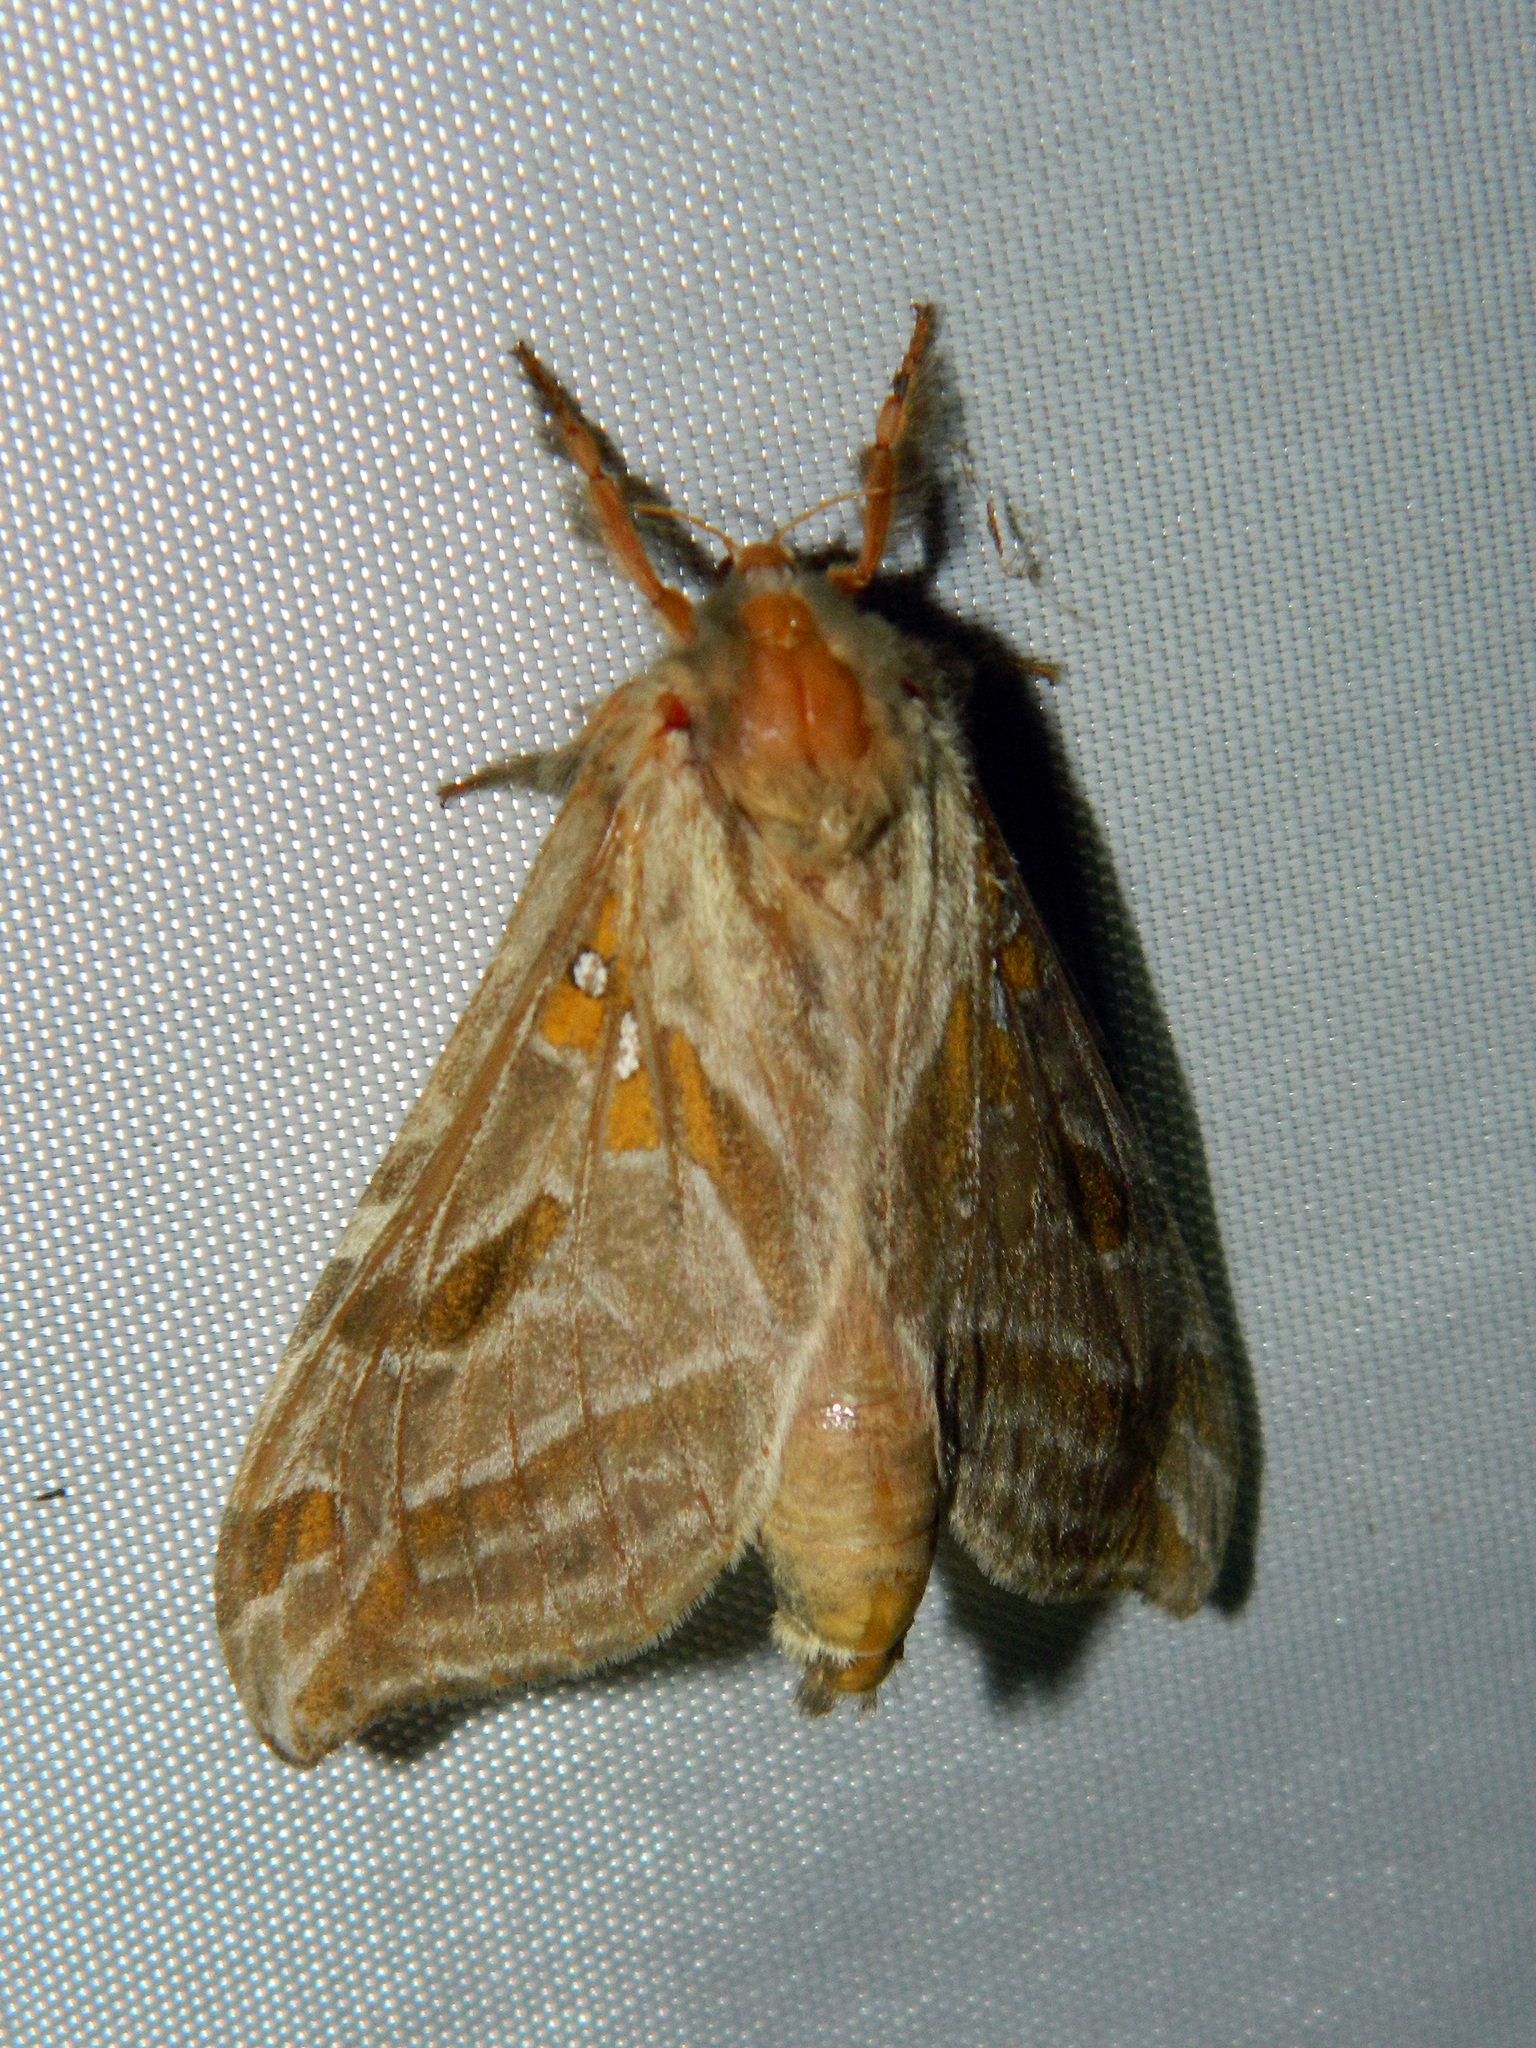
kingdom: Animalia
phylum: Arthropoda
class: Insecta
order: Lepidoptera
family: Hepialidae
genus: Sthenopis
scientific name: Sthenopis argenteomaculatus
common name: Silver-spotted ghost moth
